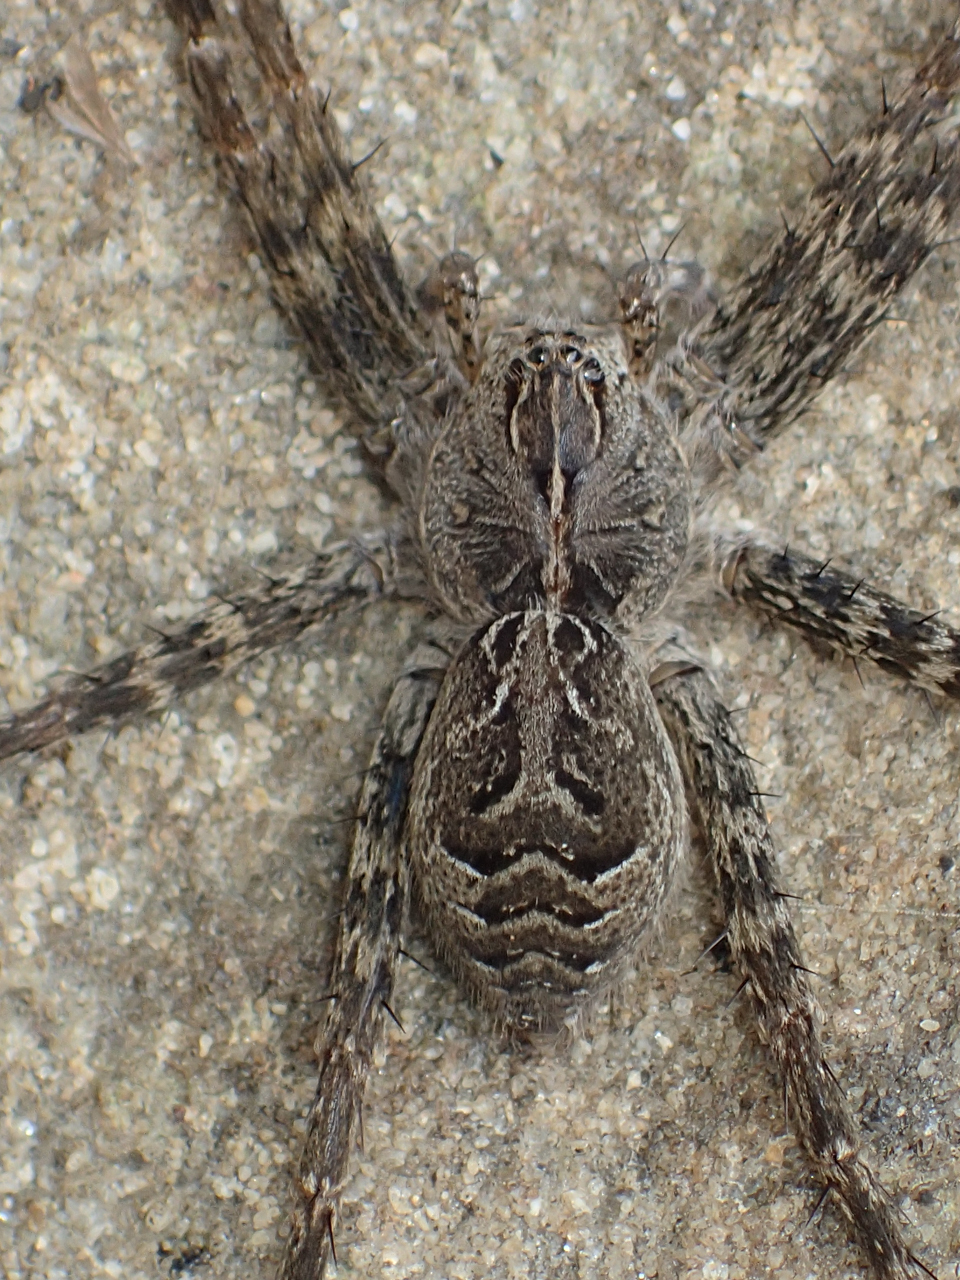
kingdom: Animalia
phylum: Arthropoda
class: Arachnida
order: Araneae
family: Pisauridae
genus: Dolomedes
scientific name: Dolomedes scriptus
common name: Striped fishing spider
